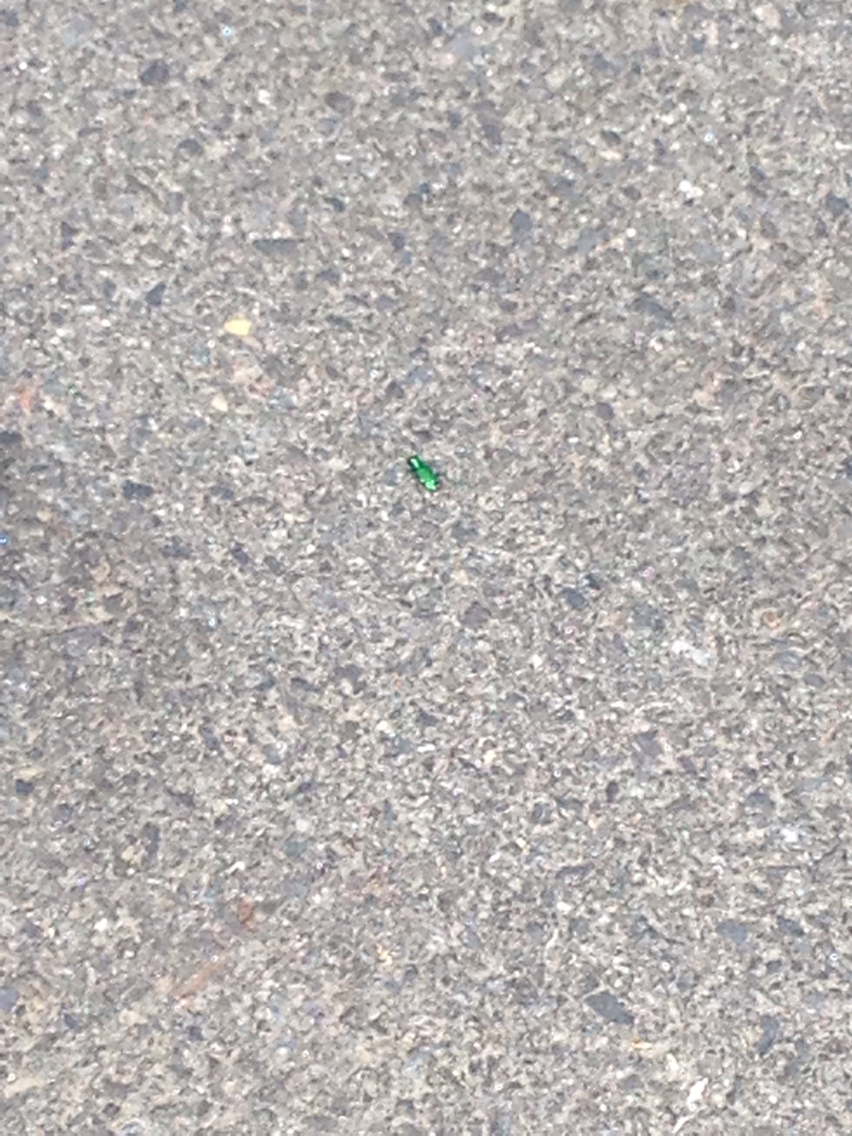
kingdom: Animalia
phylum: Arthropoda
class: Insecta
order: Coleoptera
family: Carabidae
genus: Cicindela
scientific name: Cicindela sexguttata
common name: Six-spotted tiger beetle
